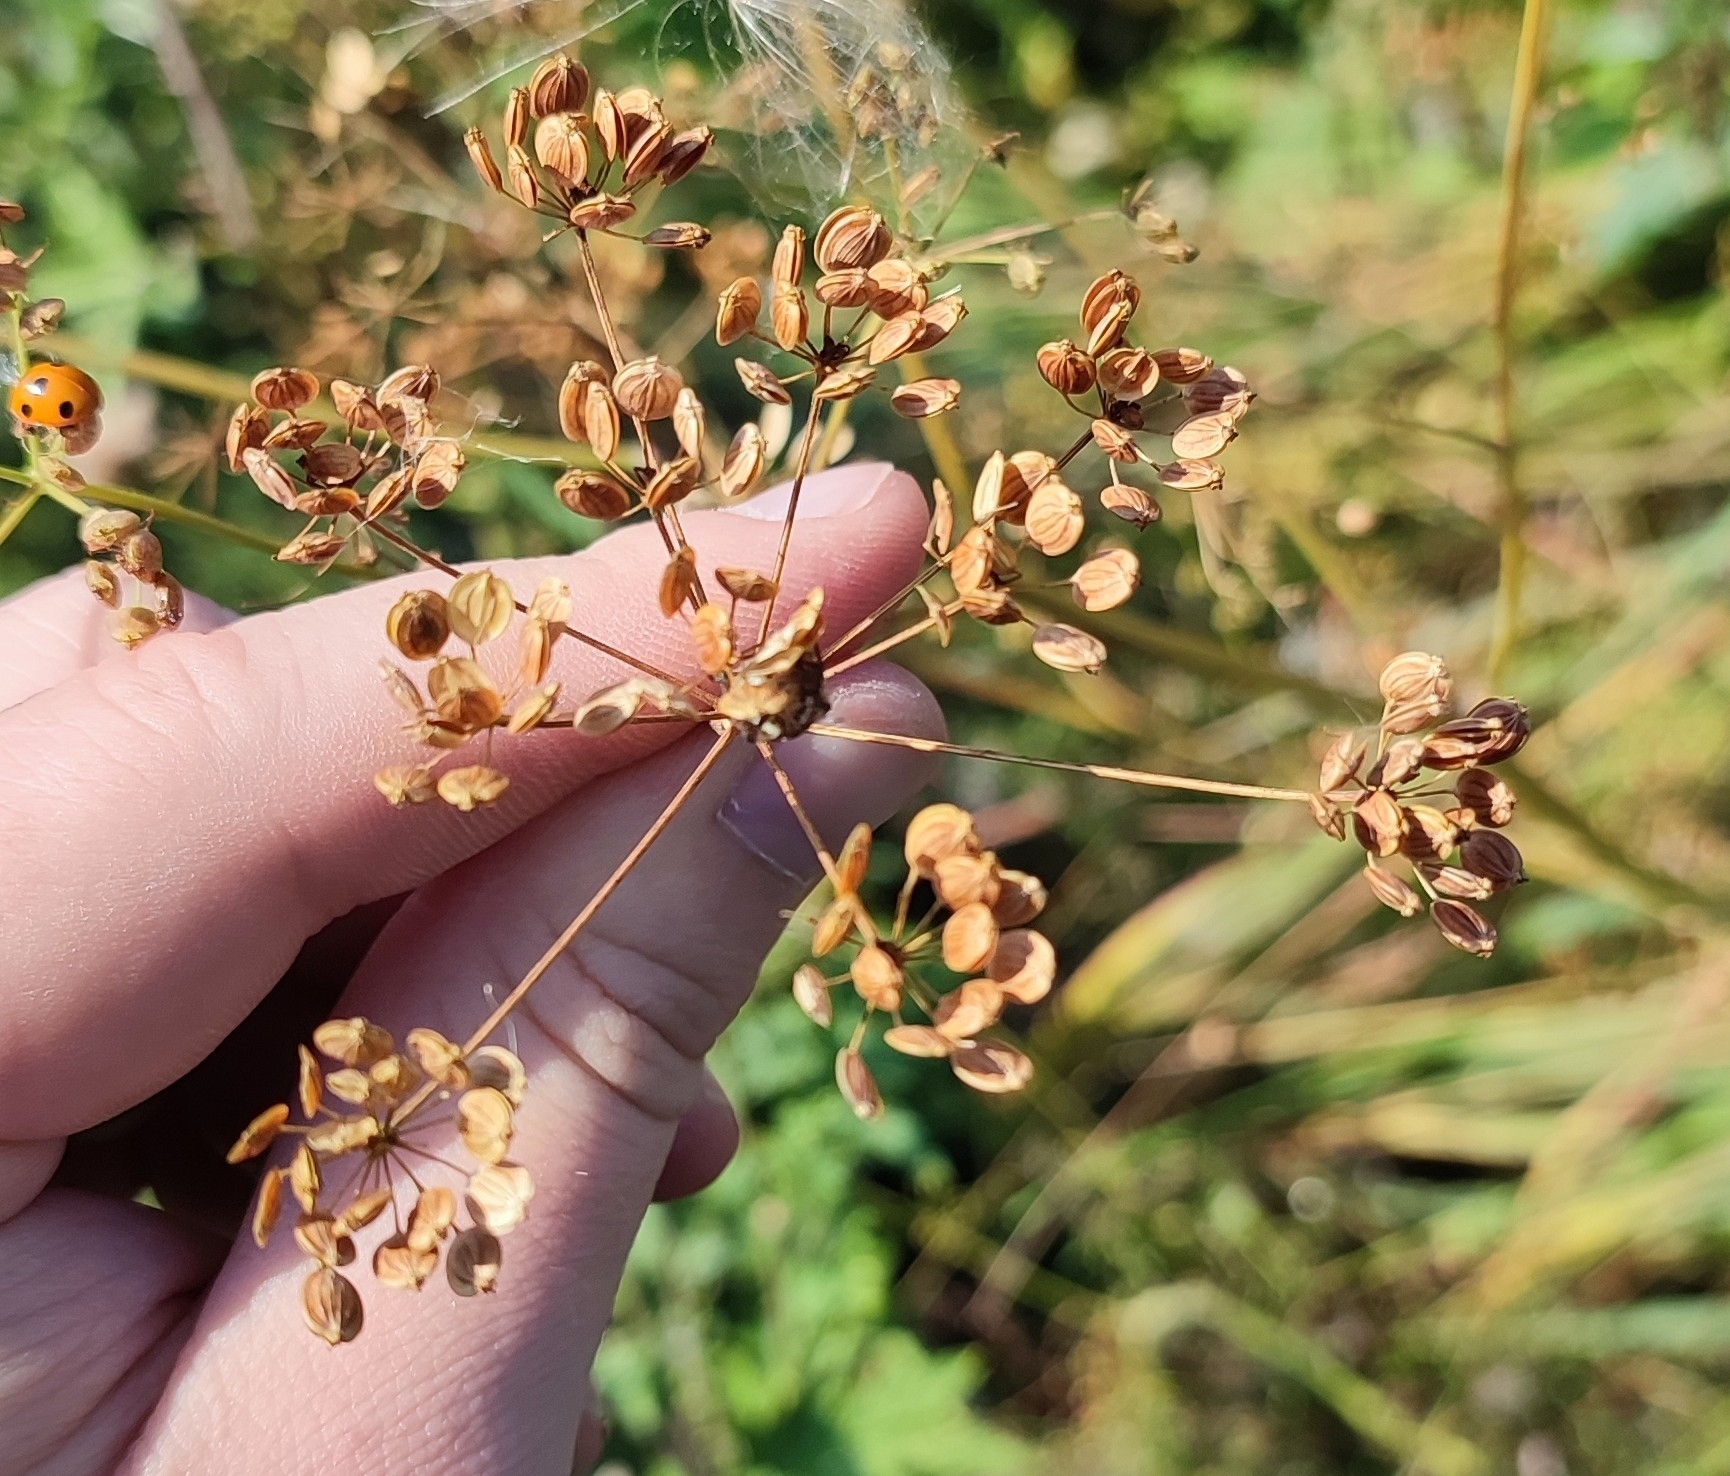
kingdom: Plantae
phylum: Tracheophyta
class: Magnoliopsida
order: Apiales
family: Apiaceae
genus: Pastinaca
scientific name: Pastinaca sativa
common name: Wild parsnip
